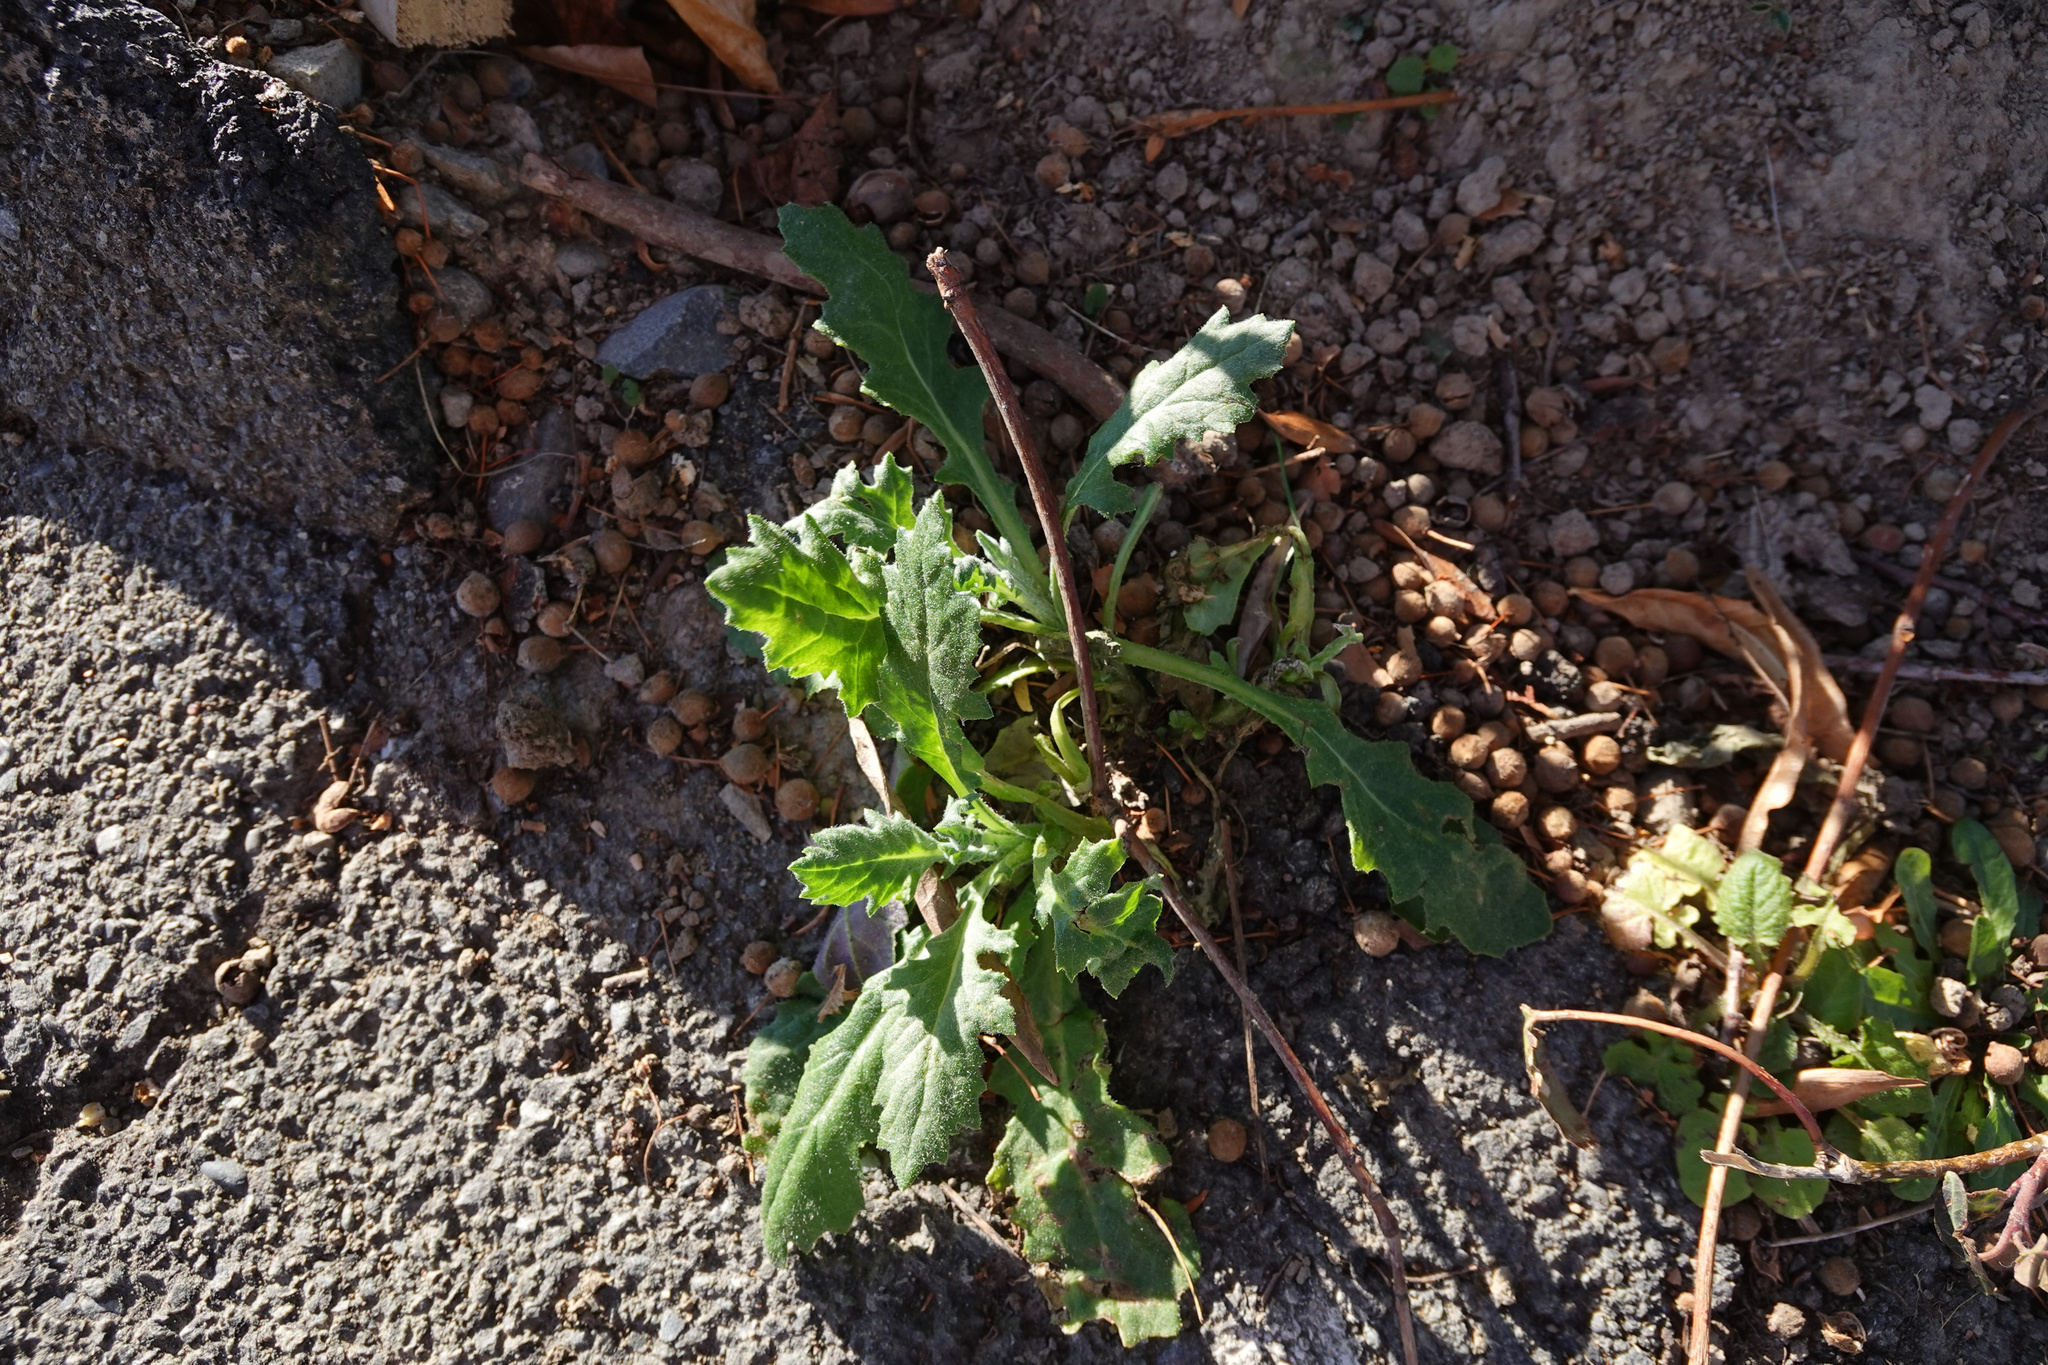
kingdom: Plantae
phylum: Tracheophyta
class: Magnoliopsida
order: Asterales
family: Asteraceae
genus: Senecio
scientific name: Senecio glomeratus
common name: Cutleaf burnweed
